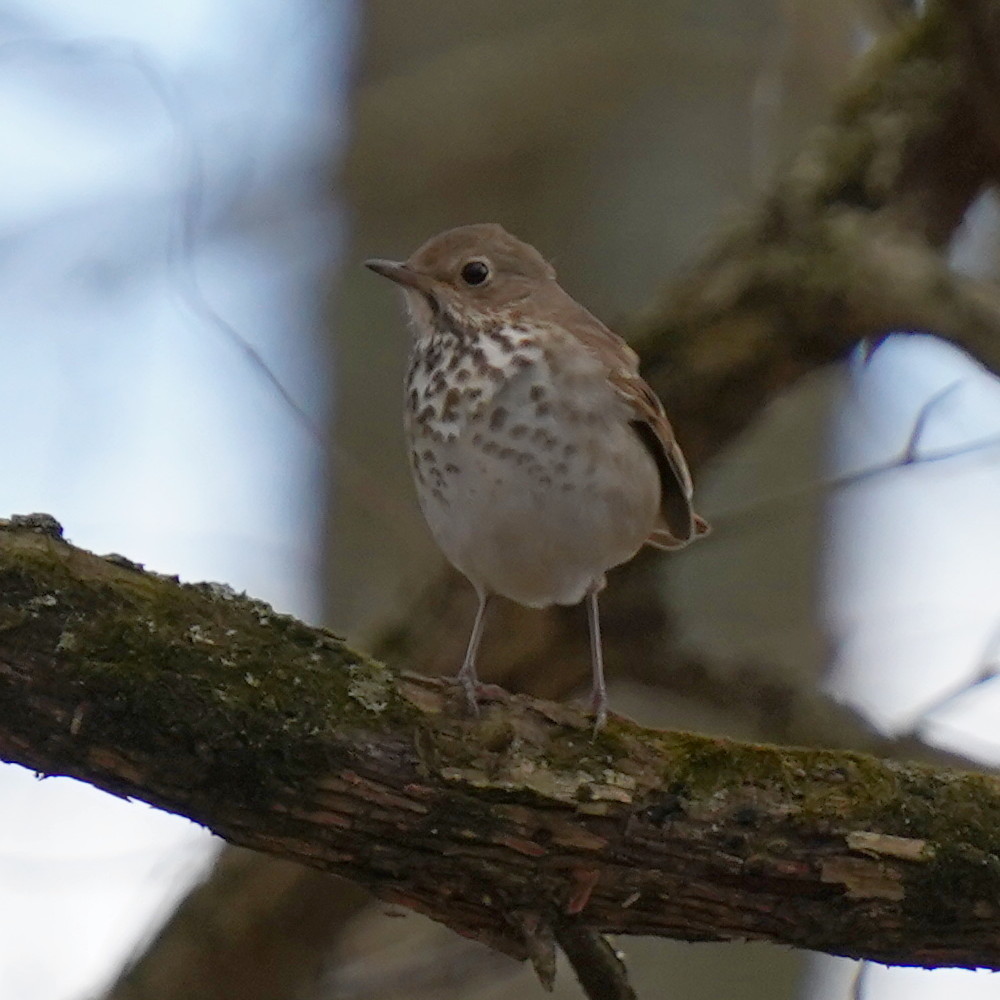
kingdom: Animalia
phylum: Chordata
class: Aves
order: Passeriformes
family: Turdidae
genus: Catharus
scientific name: Catharus guttatus
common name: Hermit thrush
